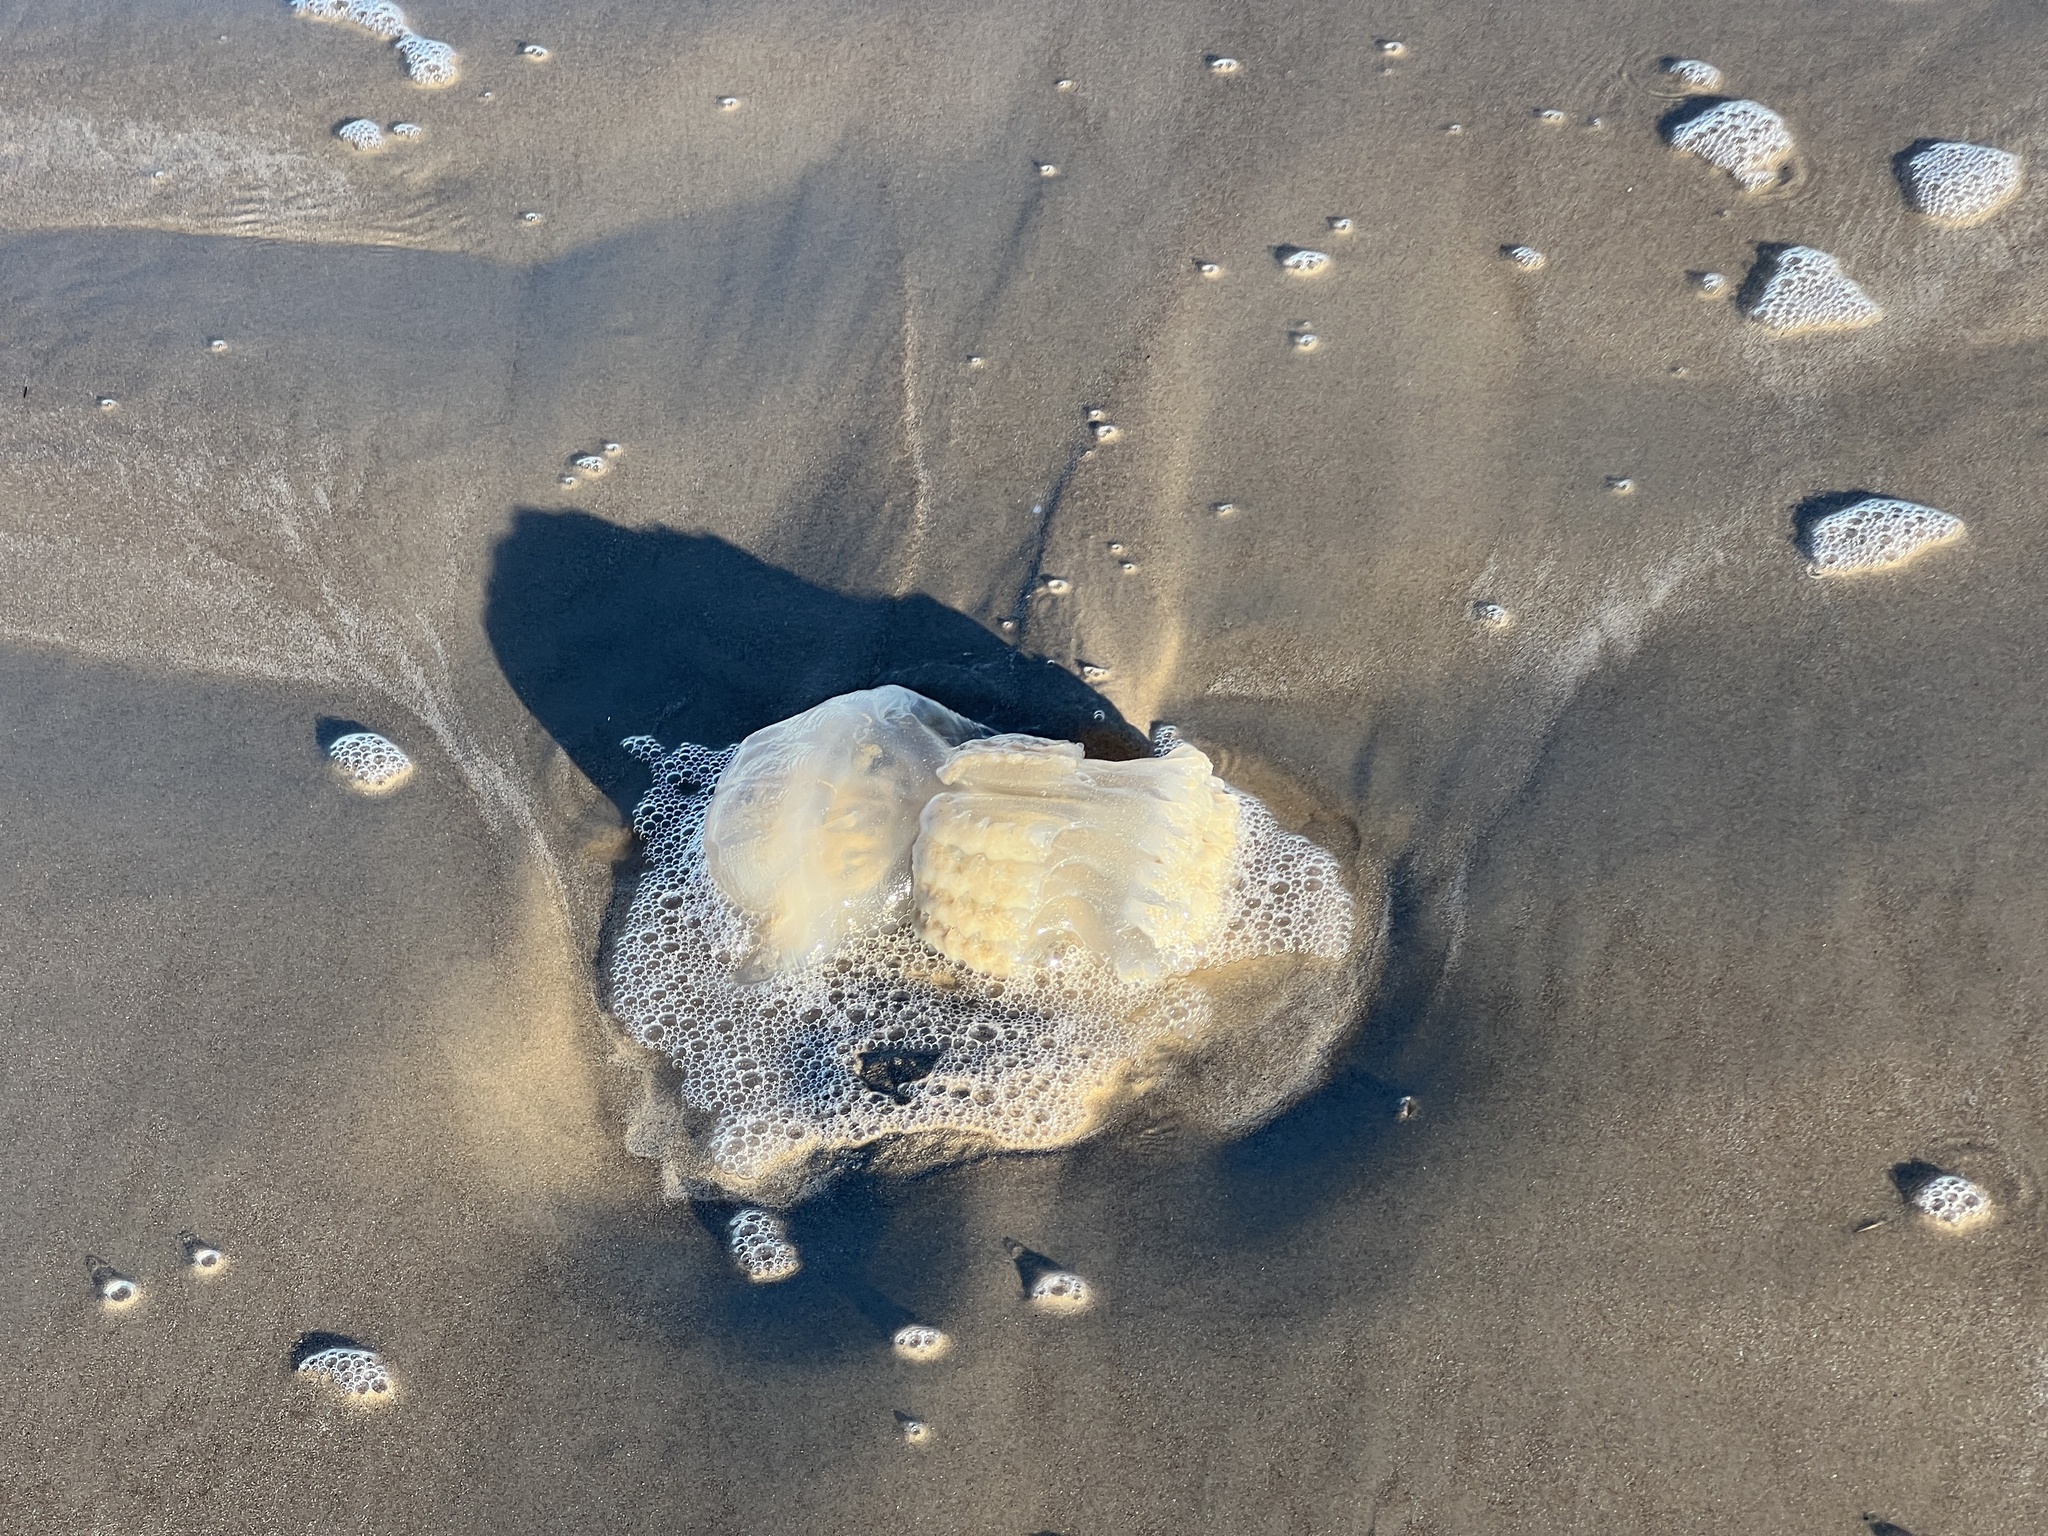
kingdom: Animalia
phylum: Cnidaria
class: Scyphozoa
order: Rhizostomeae
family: Stomolophidae
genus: Stomolophus
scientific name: Stomolophus meleagris
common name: Cabbagehead
